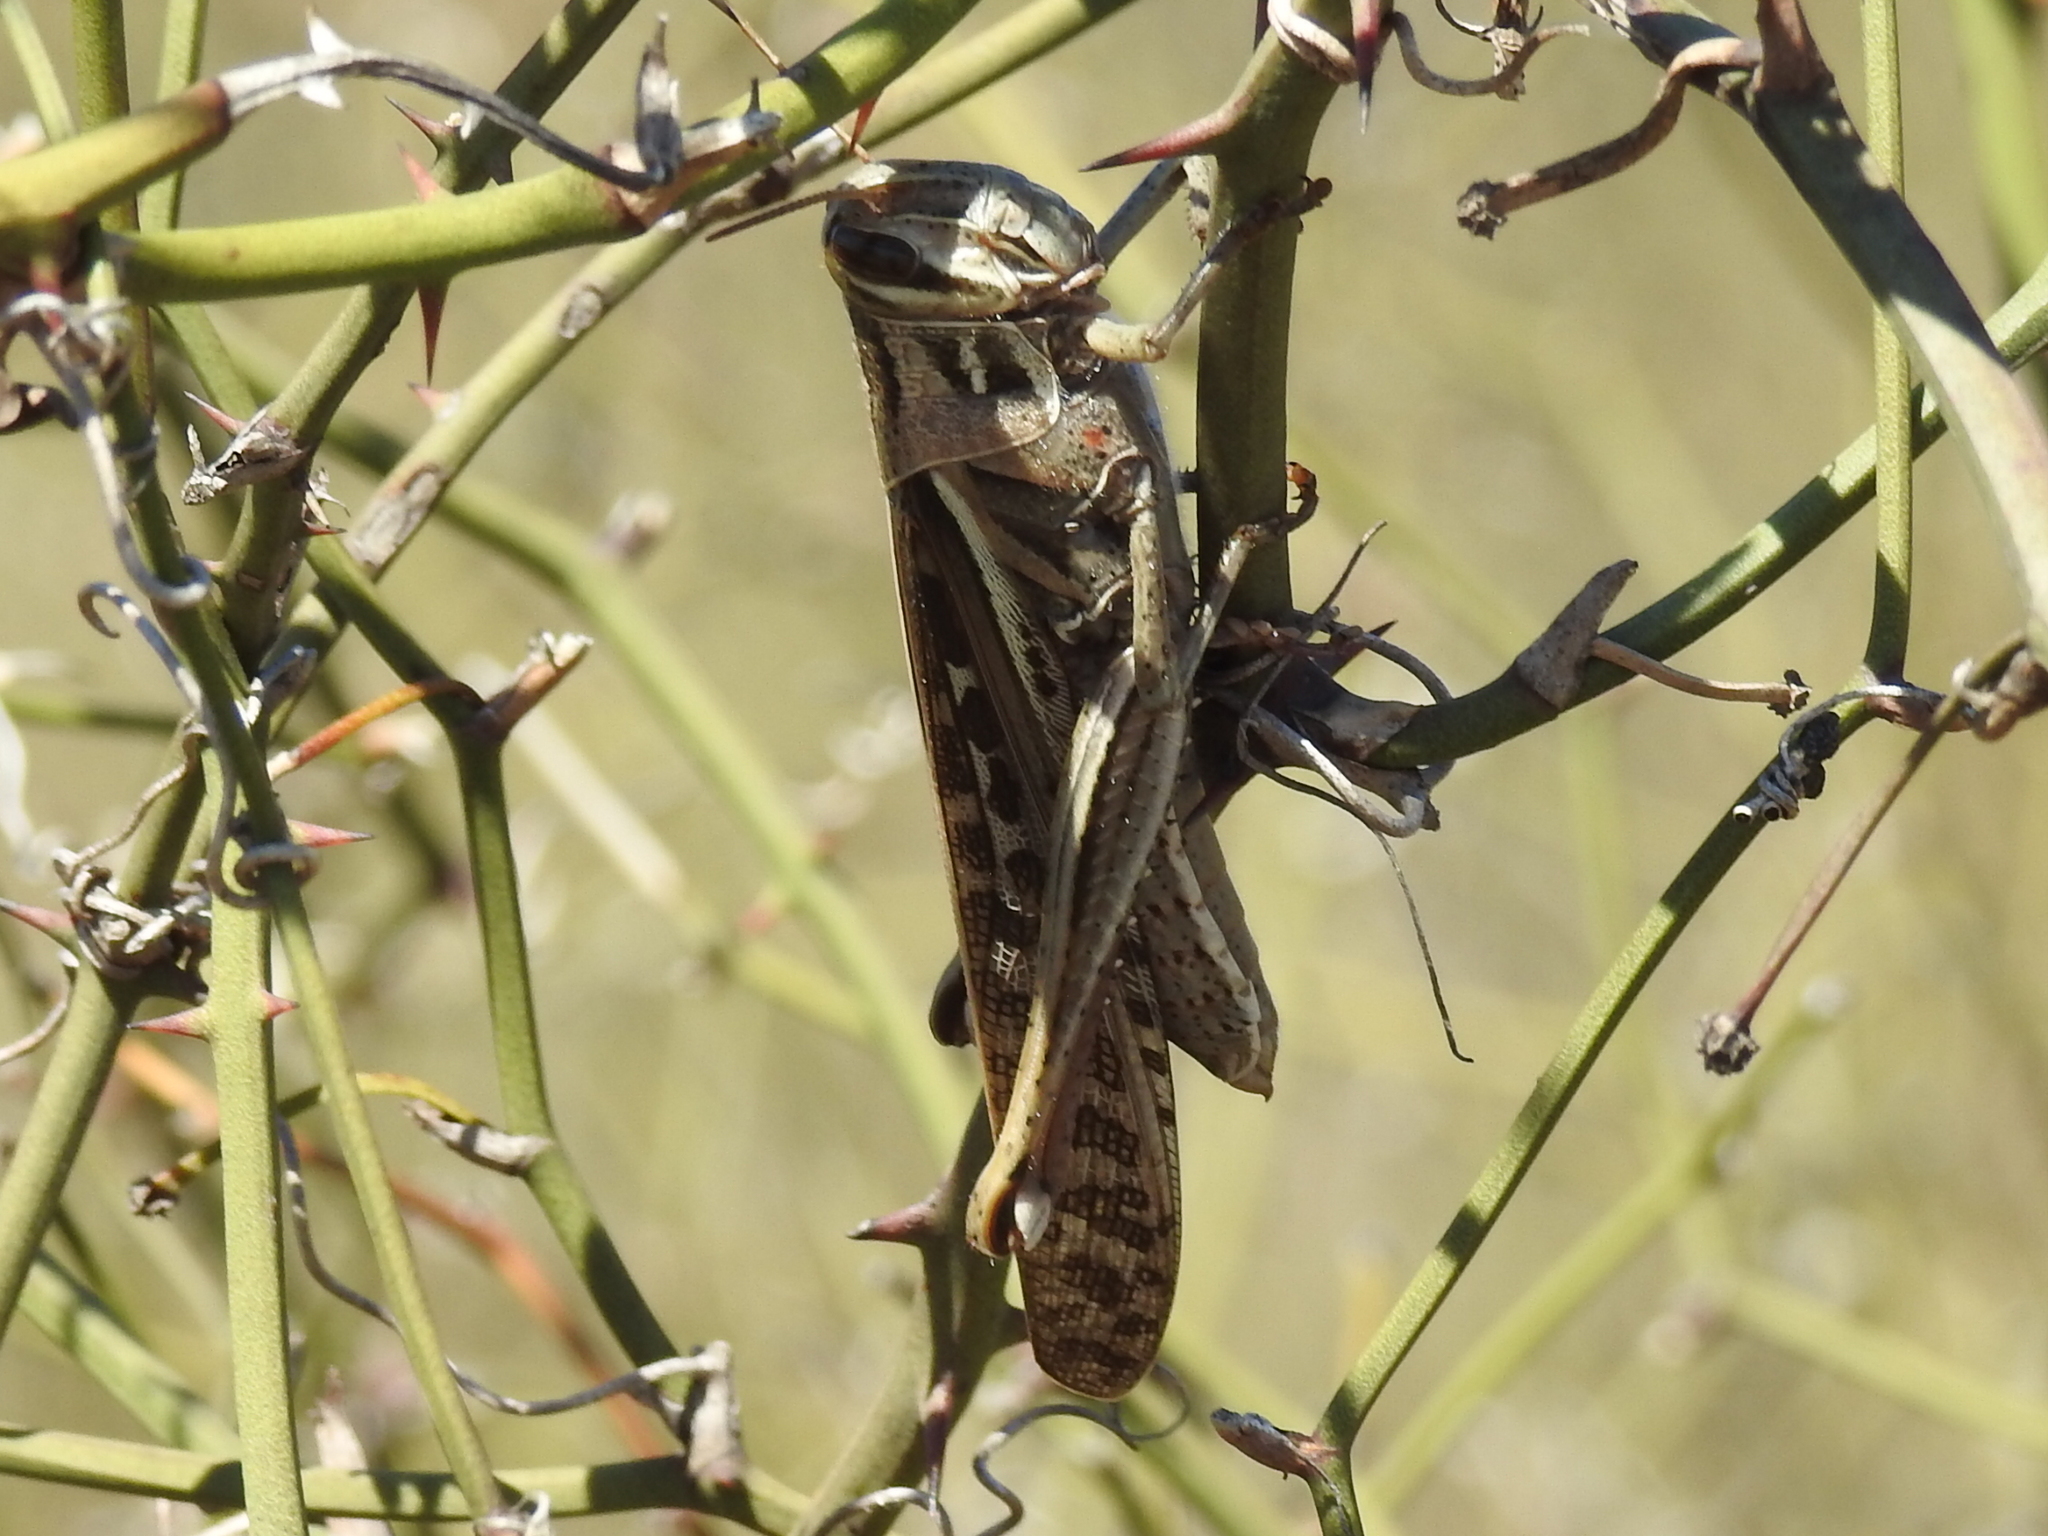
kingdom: Animalia
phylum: Arthropoda
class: Insecta
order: Orthoptera
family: Acrididae
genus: Schistocerca
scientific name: Schistocerca americana
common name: American bird locust
